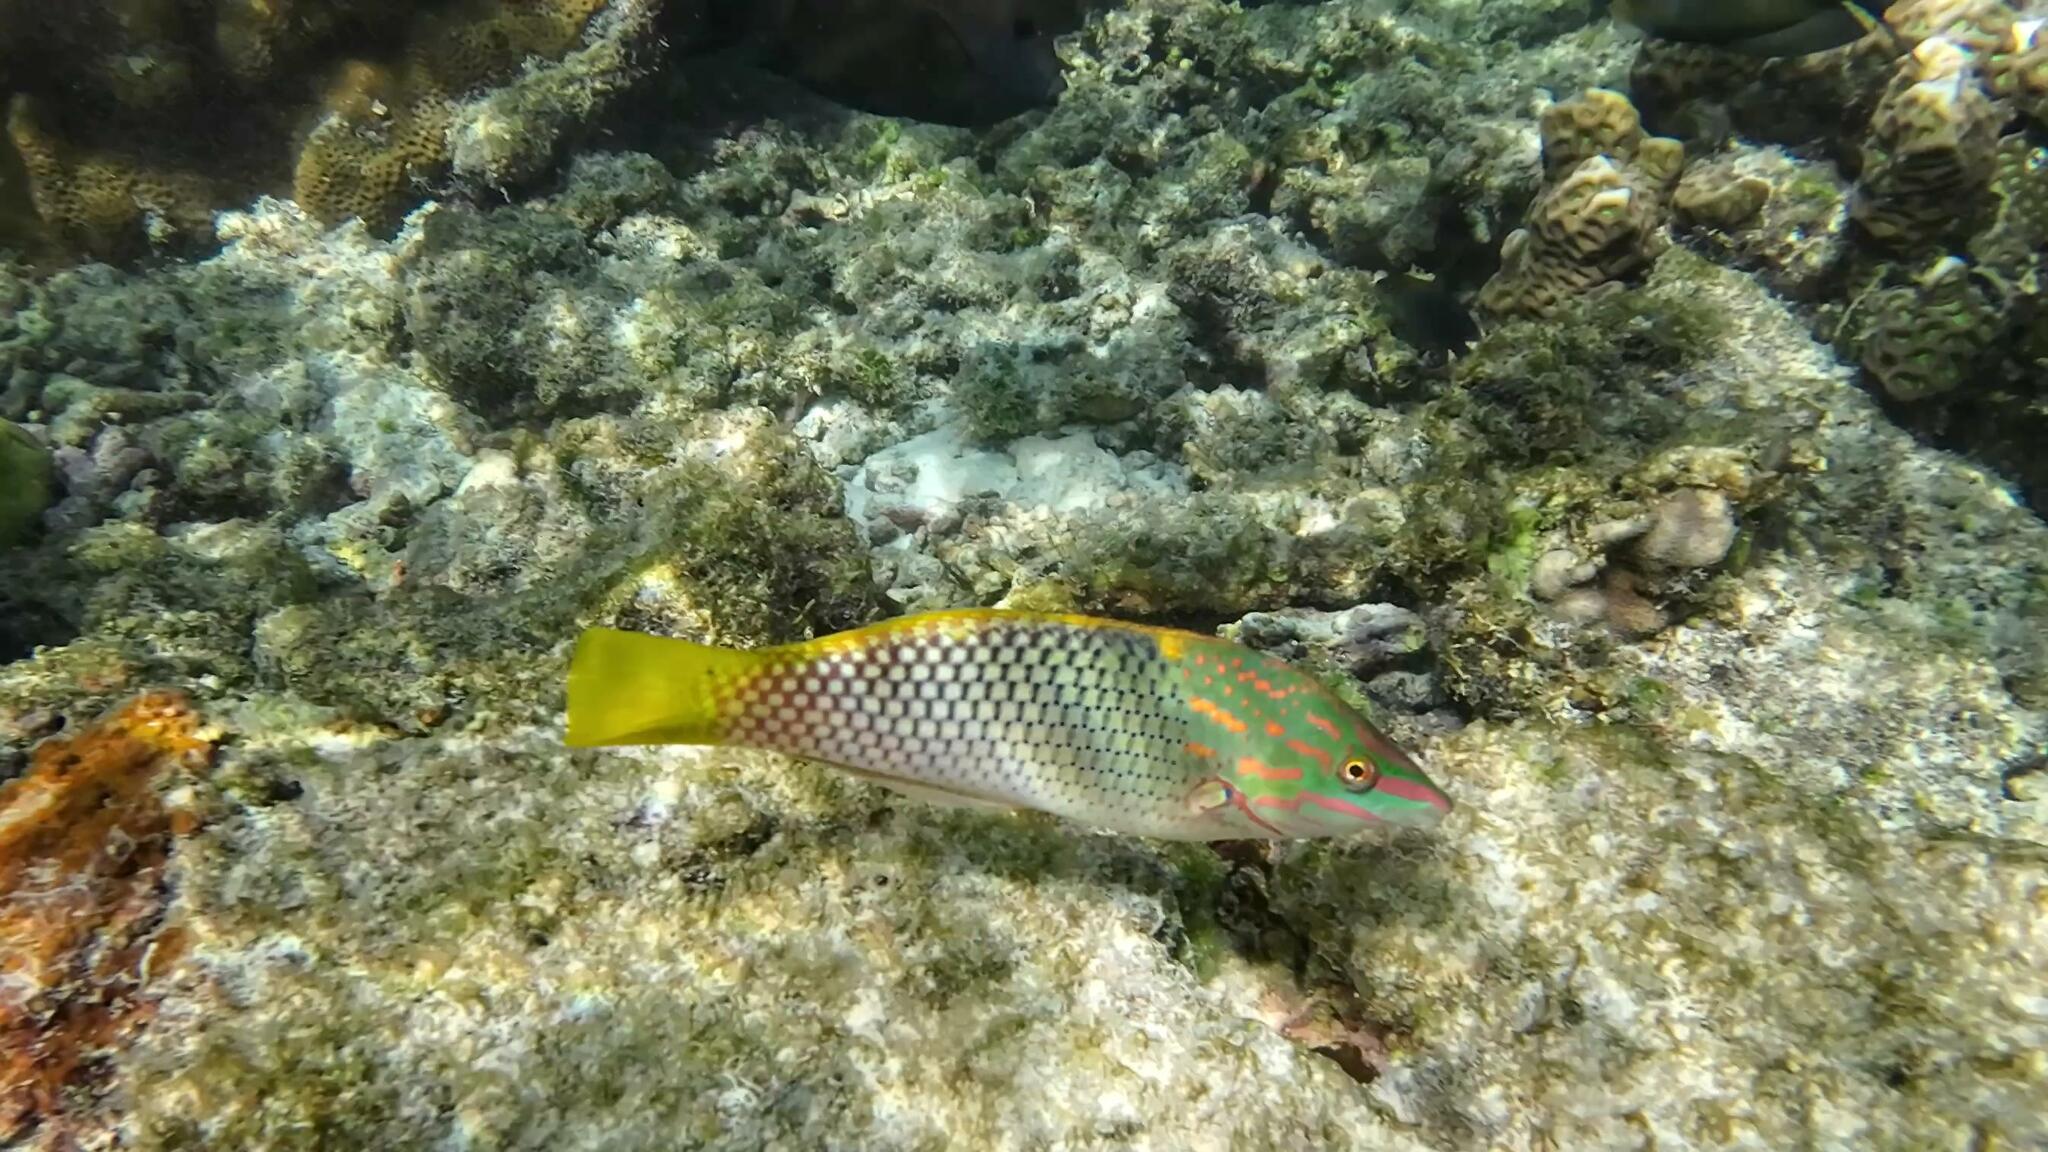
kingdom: Animalia
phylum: Chordata
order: Perciformes
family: Labridae
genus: Halichoeres
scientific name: Halichoeres hortulanus
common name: Checkerboard wrasse
